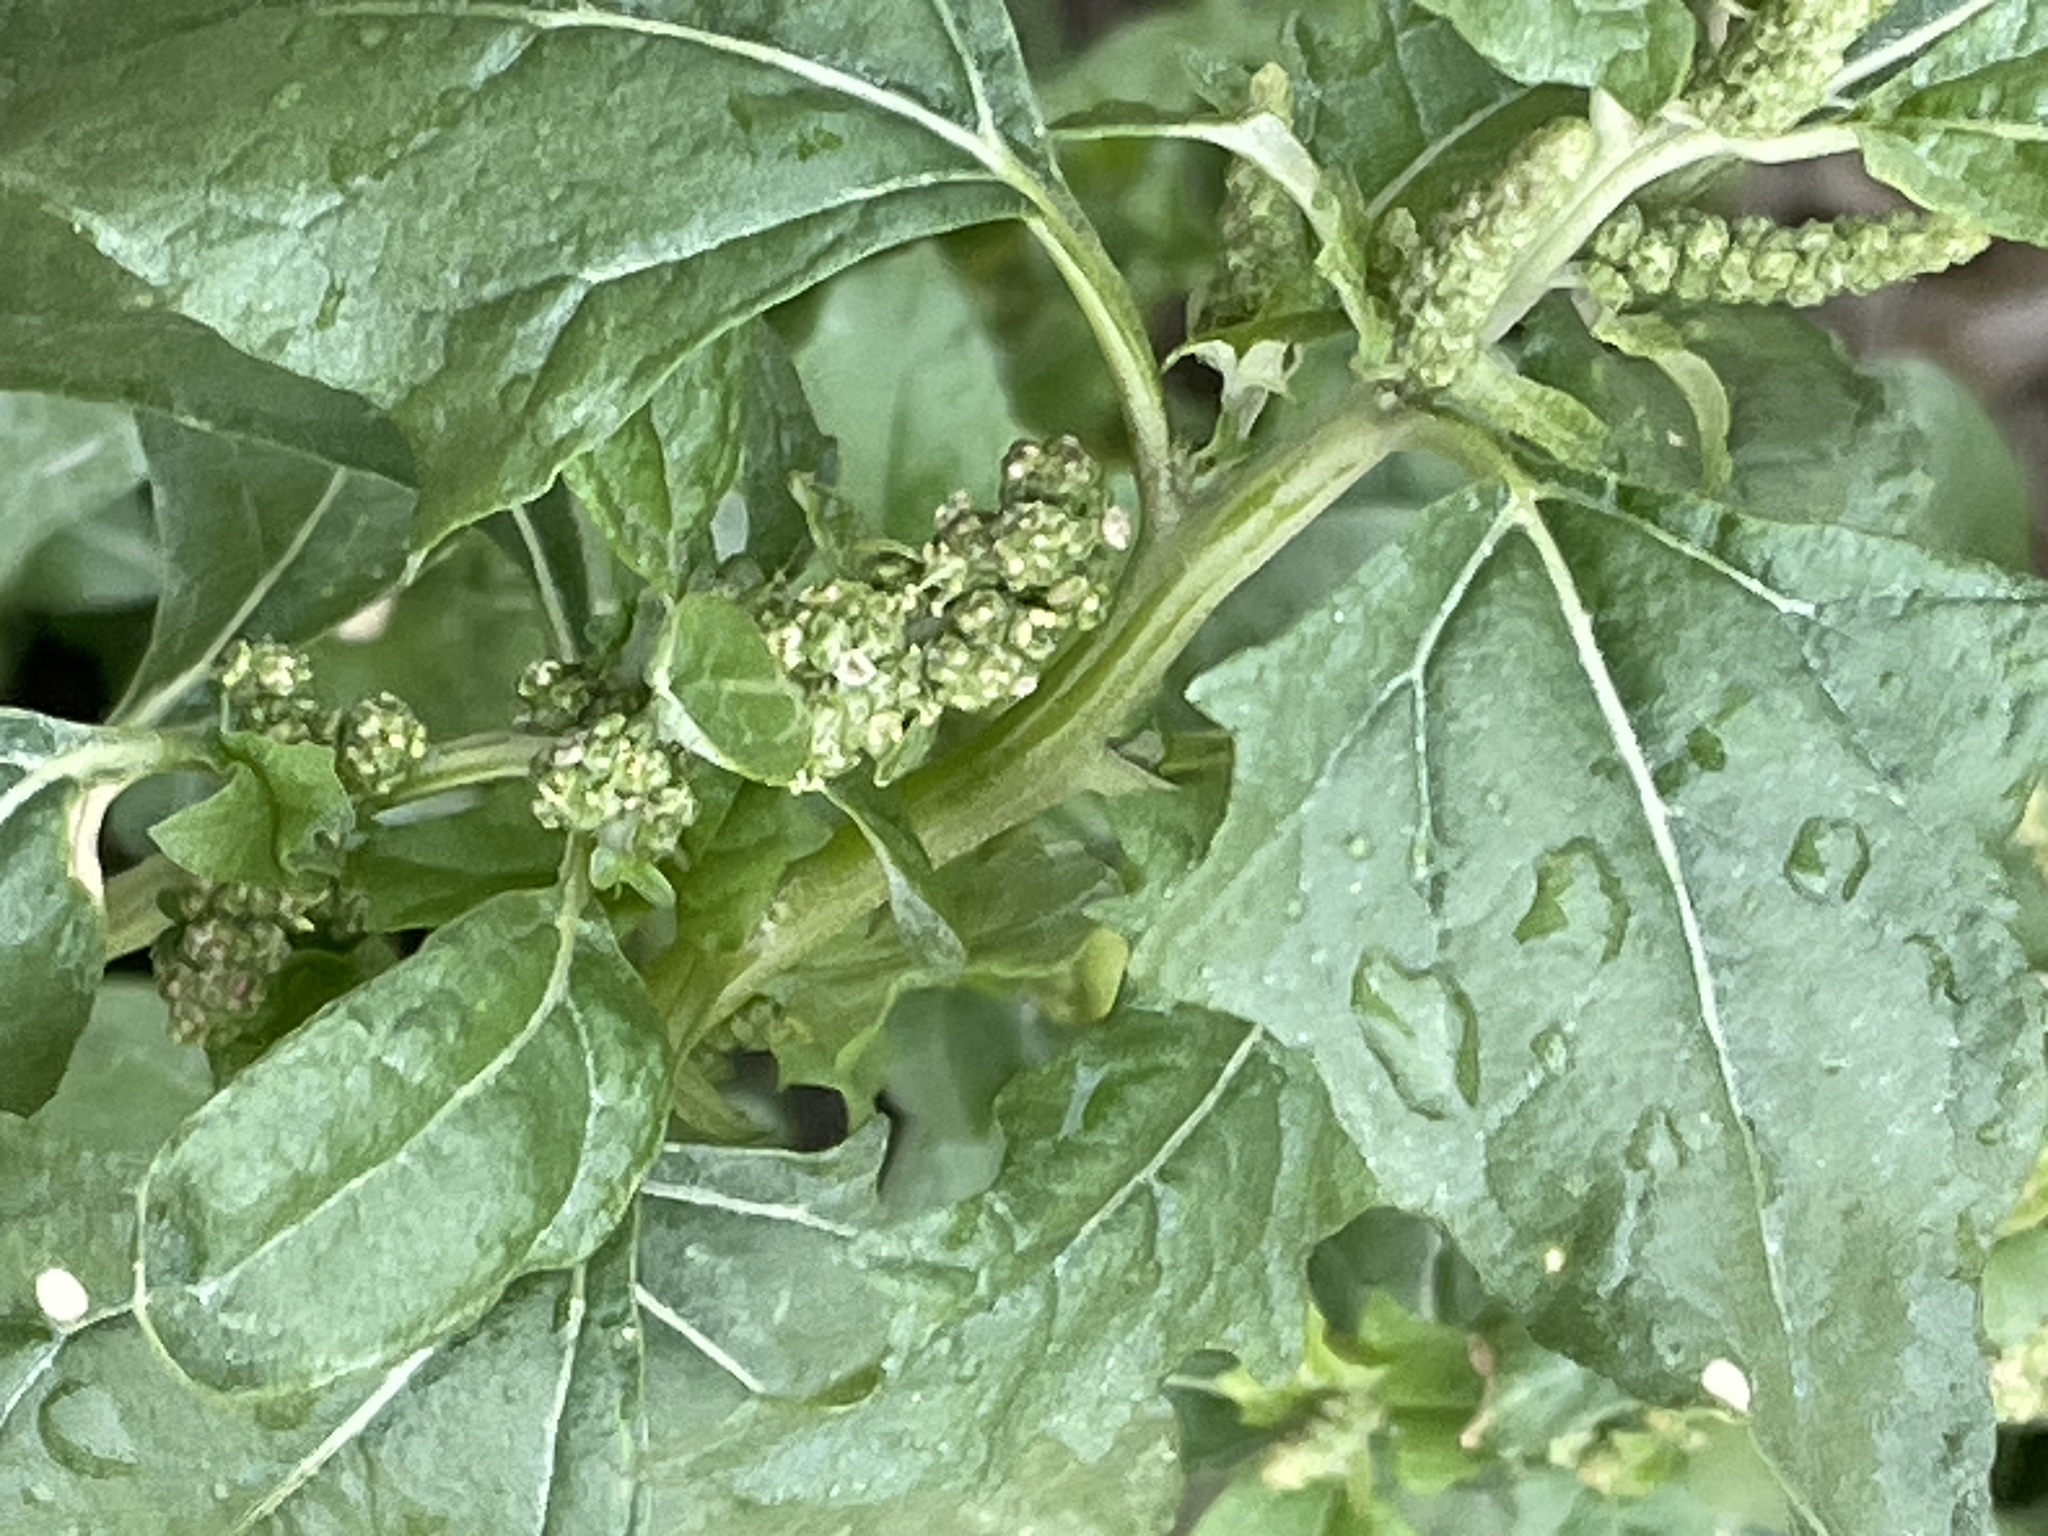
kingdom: Plantae
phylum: Tracheophyta
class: Magnoliopsida
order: Caryophyllales
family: Amaranthaceae
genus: Atriplex
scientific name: Atriplex tatarica
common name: Tatarian orache
